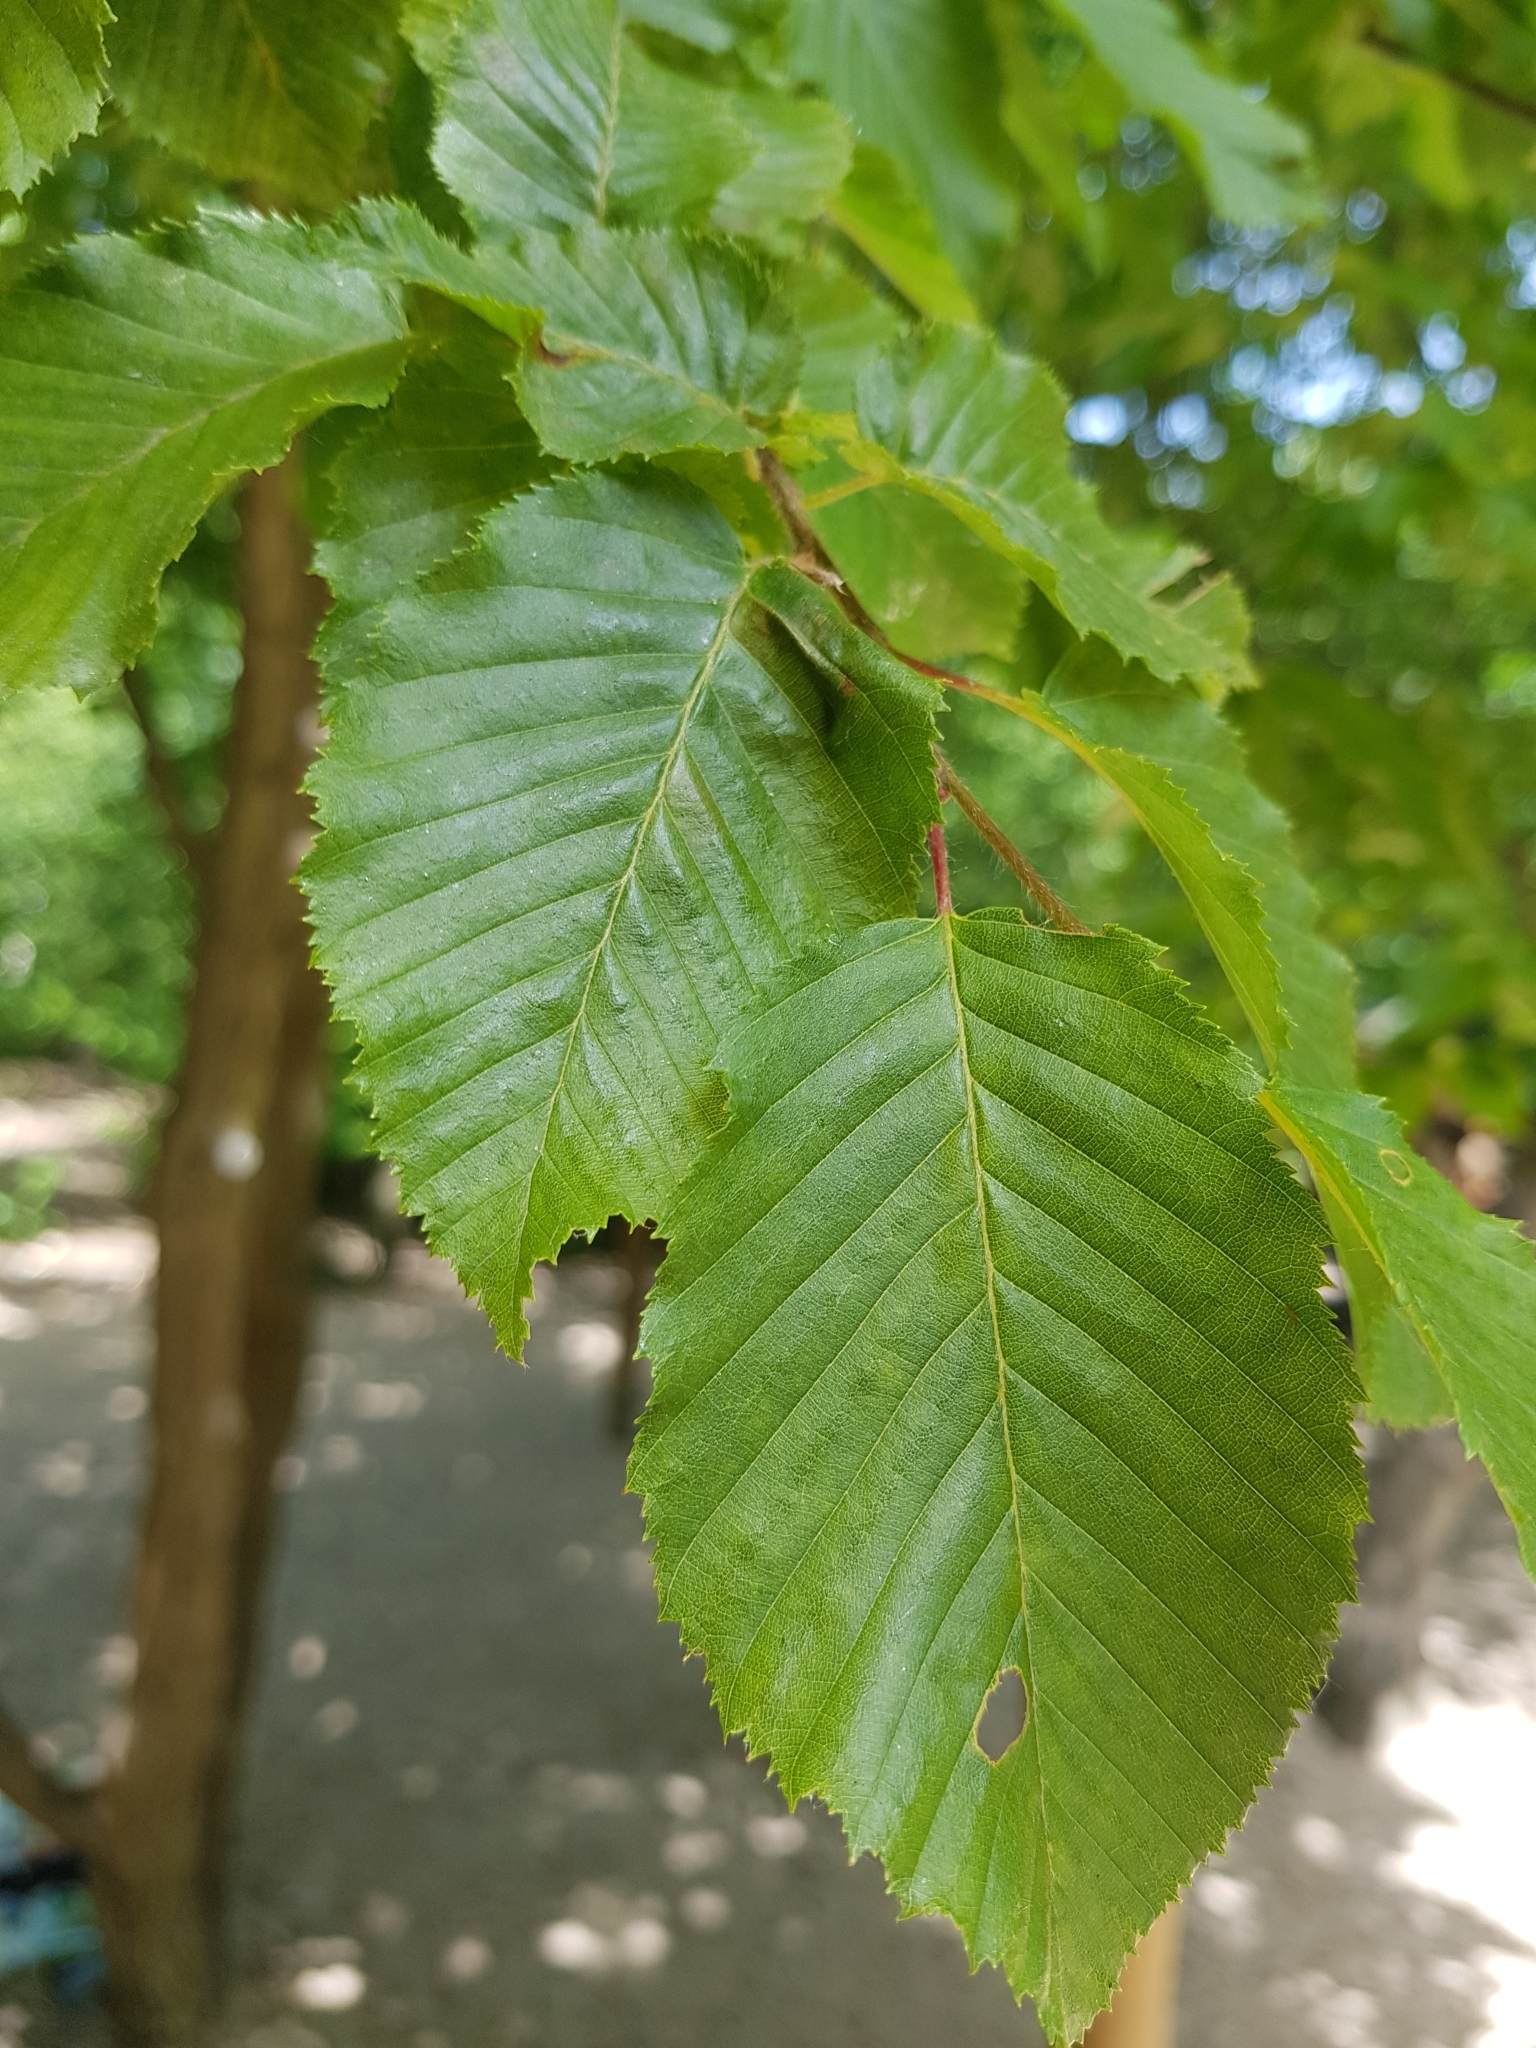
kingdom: Plantae
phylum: Tracheophyta
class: Magnoliopsida
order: Fagales
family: Betulaceae
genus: Carpinus
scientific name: Carpinus betulus
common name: Hornbeam
